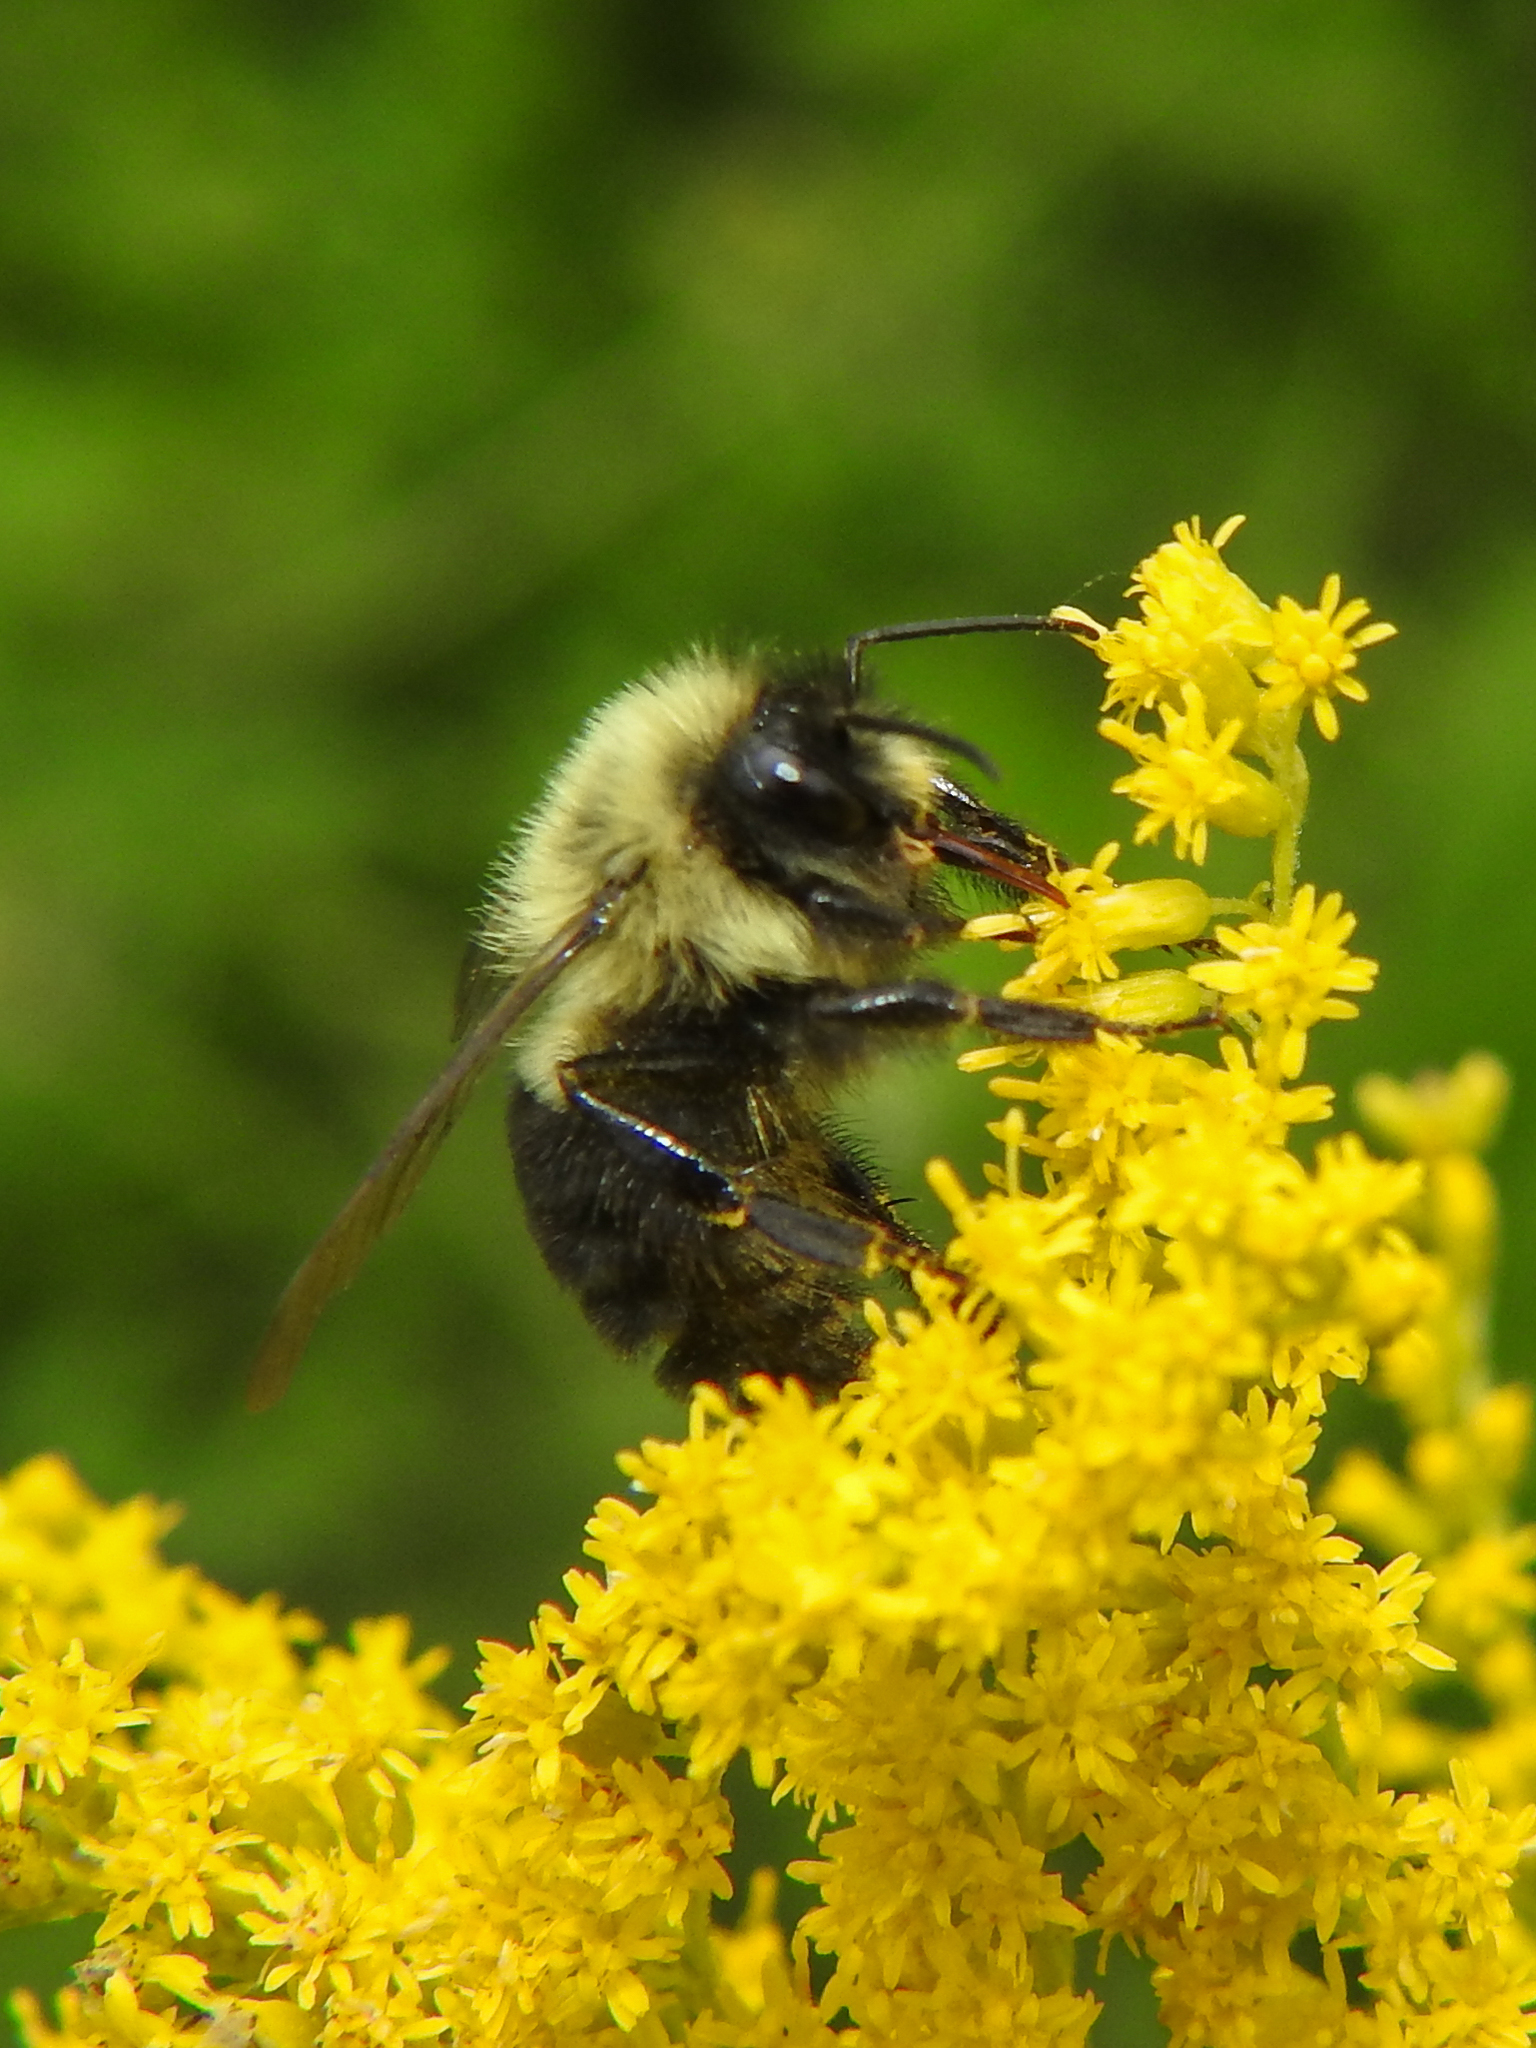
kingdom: Animalia
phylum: Arthropoda
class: Insecta
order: Hymenoptera
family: Apidae
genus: Bombus
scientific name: Bombus impatiens
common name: Common eastern bumble bee
